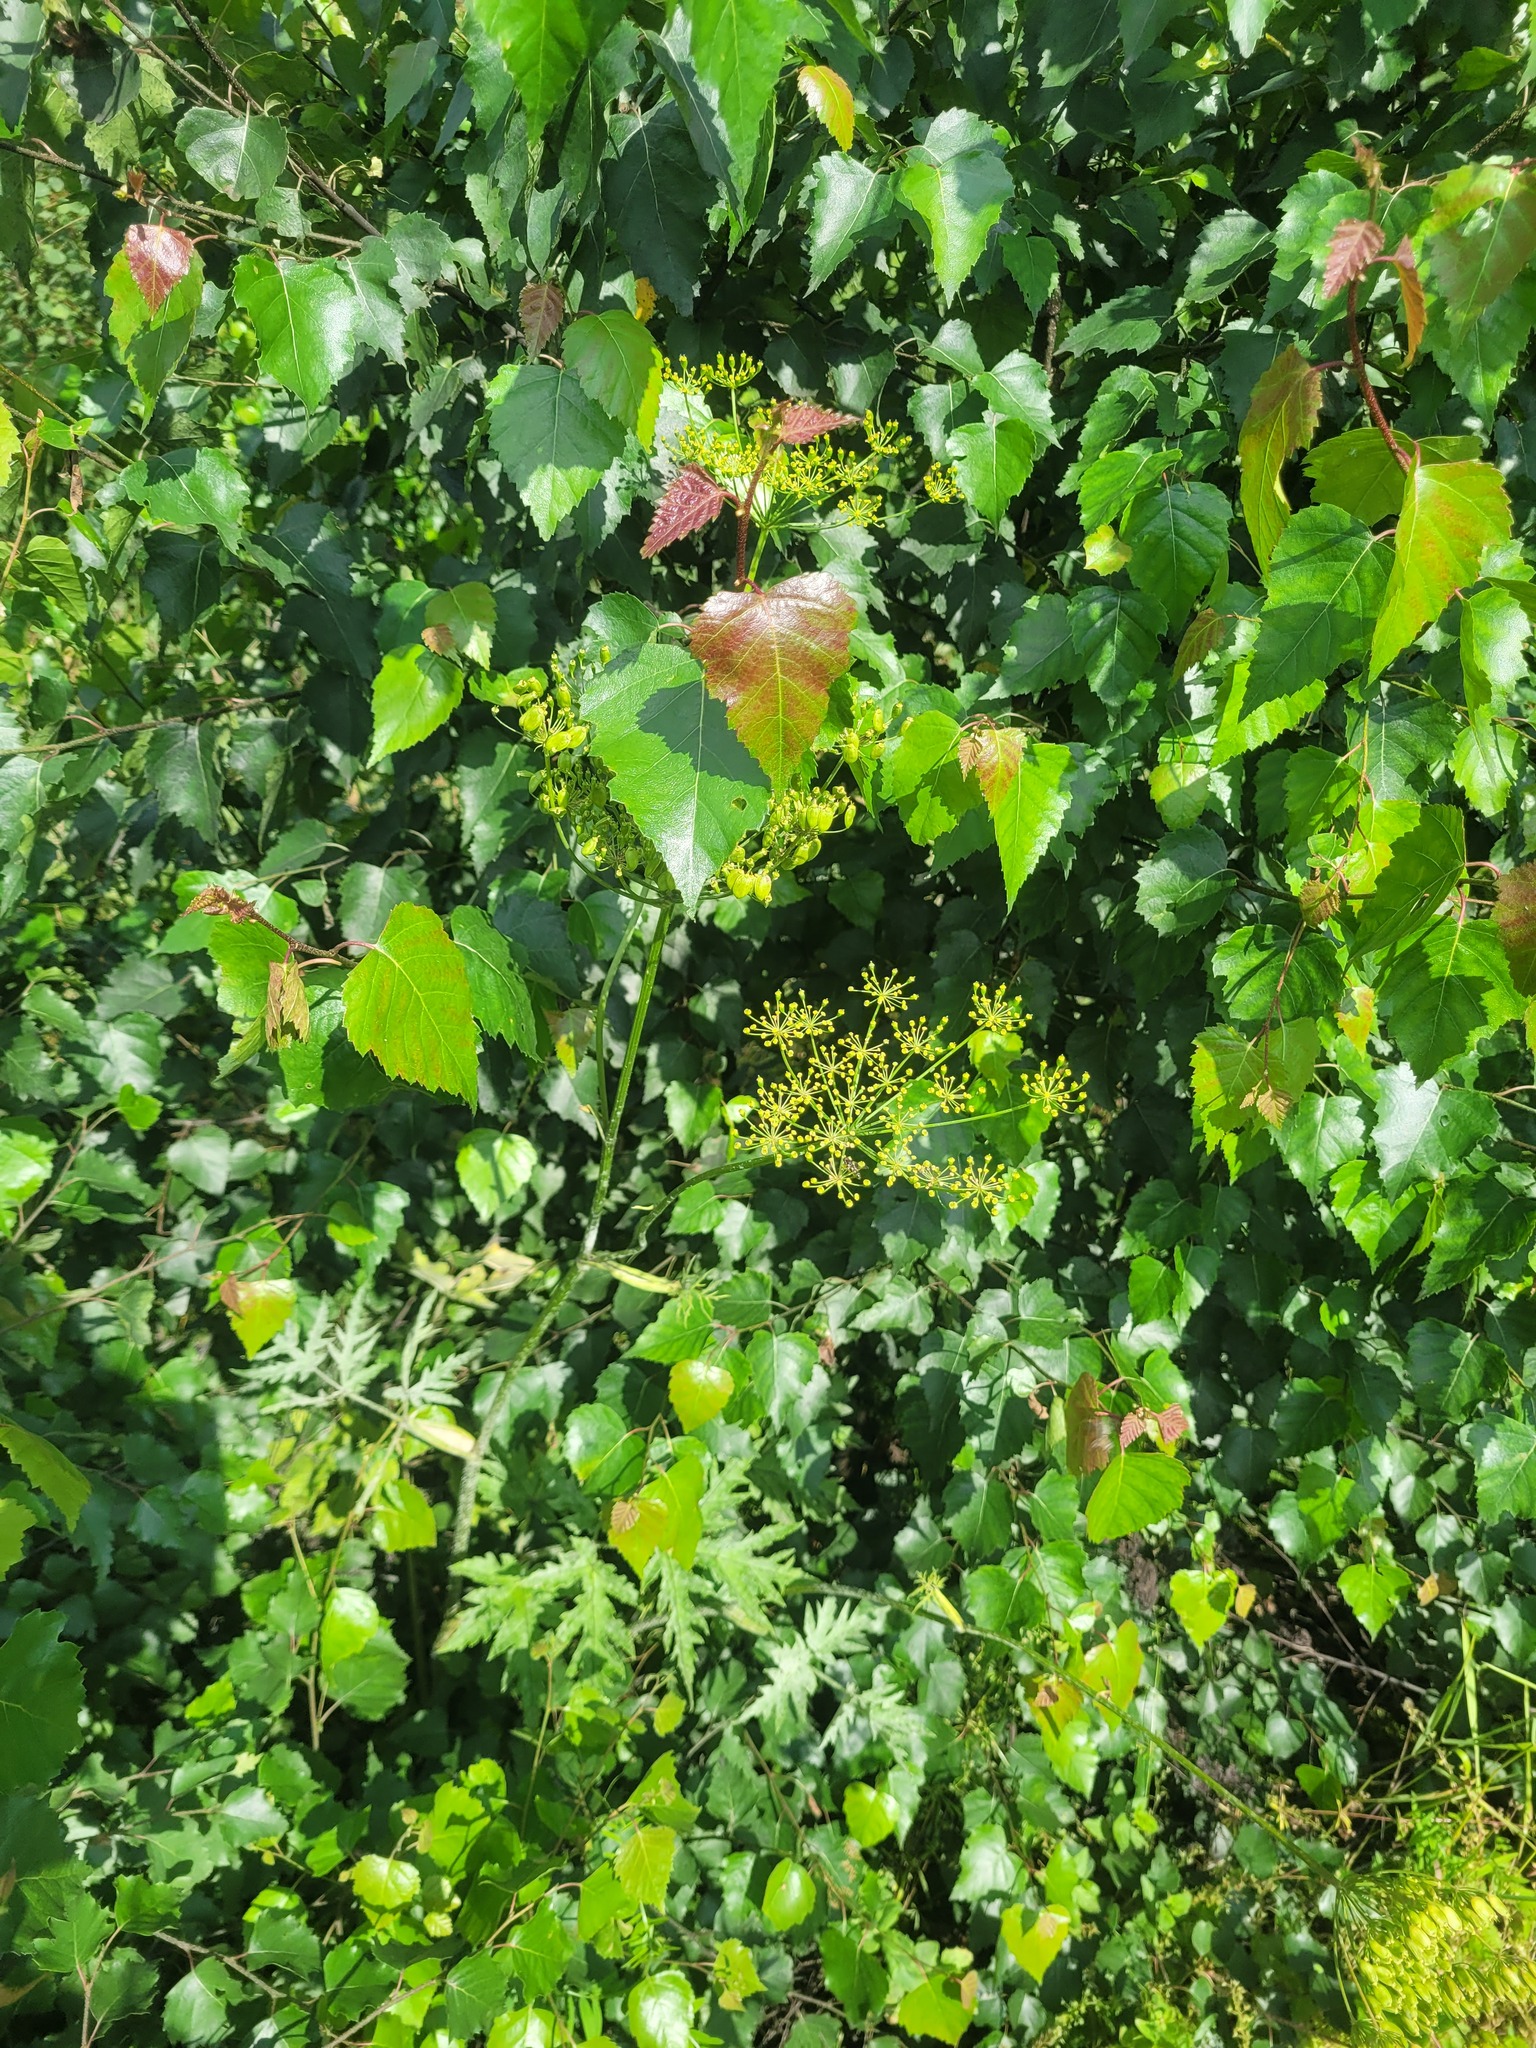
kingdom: Plantae
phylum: Tracheophyta
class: Magnoliopsida
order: Apiales
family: Apiaceae
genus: Heracleum
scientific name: Heracleum sphondylium
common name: Hogweed
